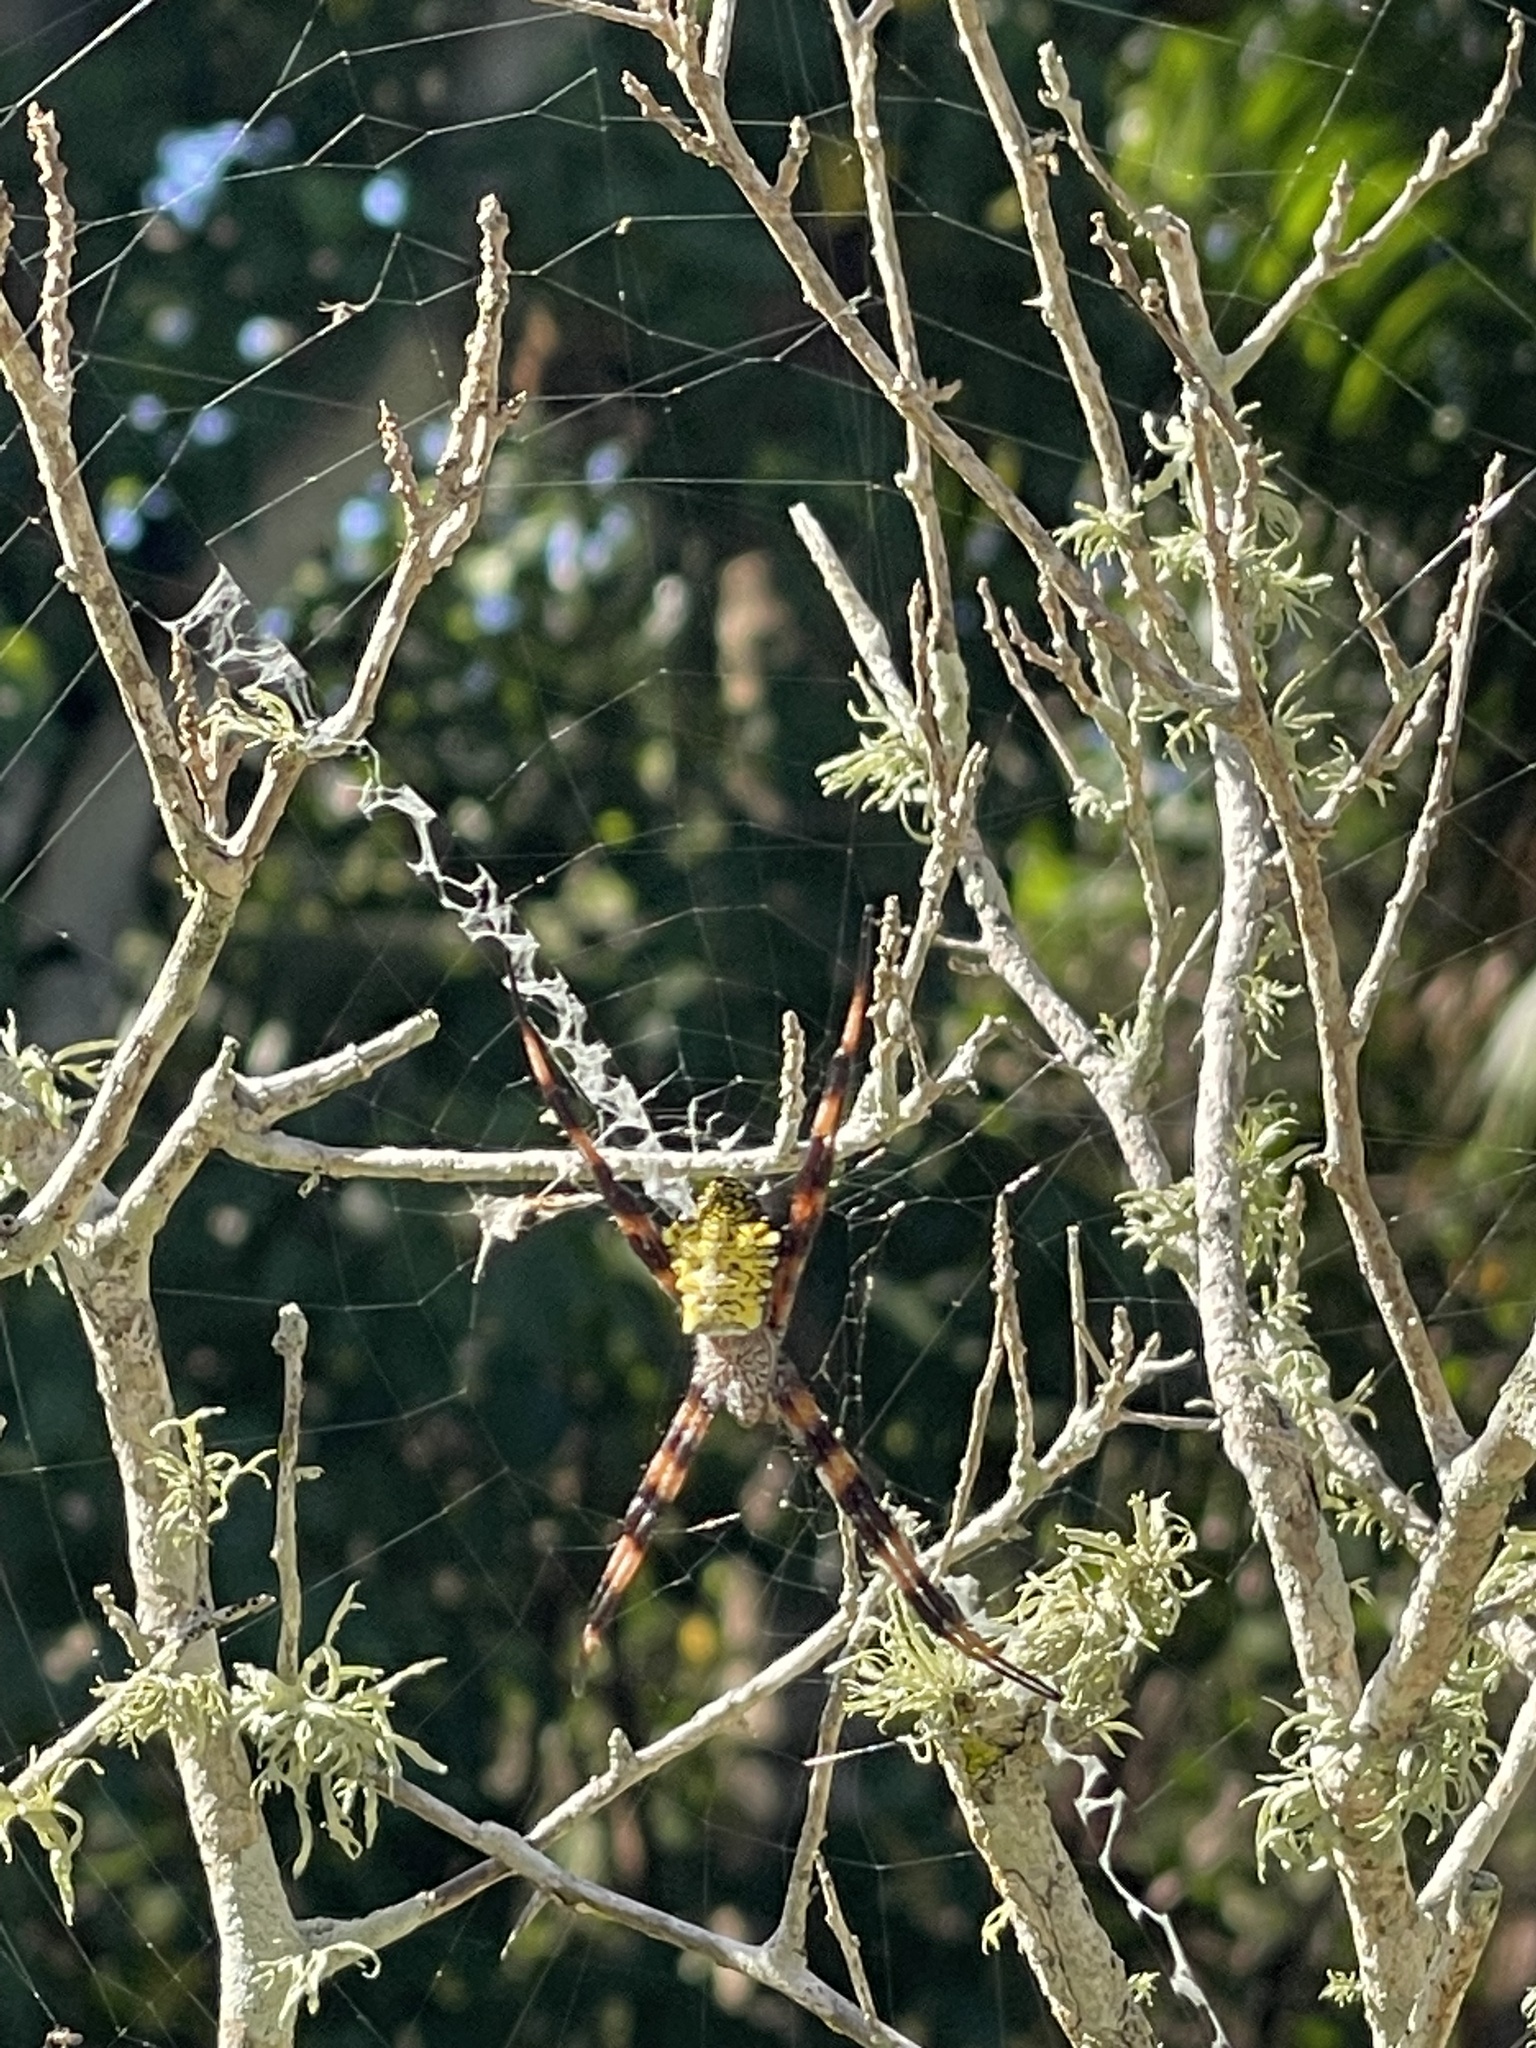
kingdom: Animalia
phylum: Arthropoda
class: Arachnida
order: Araneae
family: Araneidae
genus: Argiope
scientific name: Argiope appensa
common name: Garden spider
